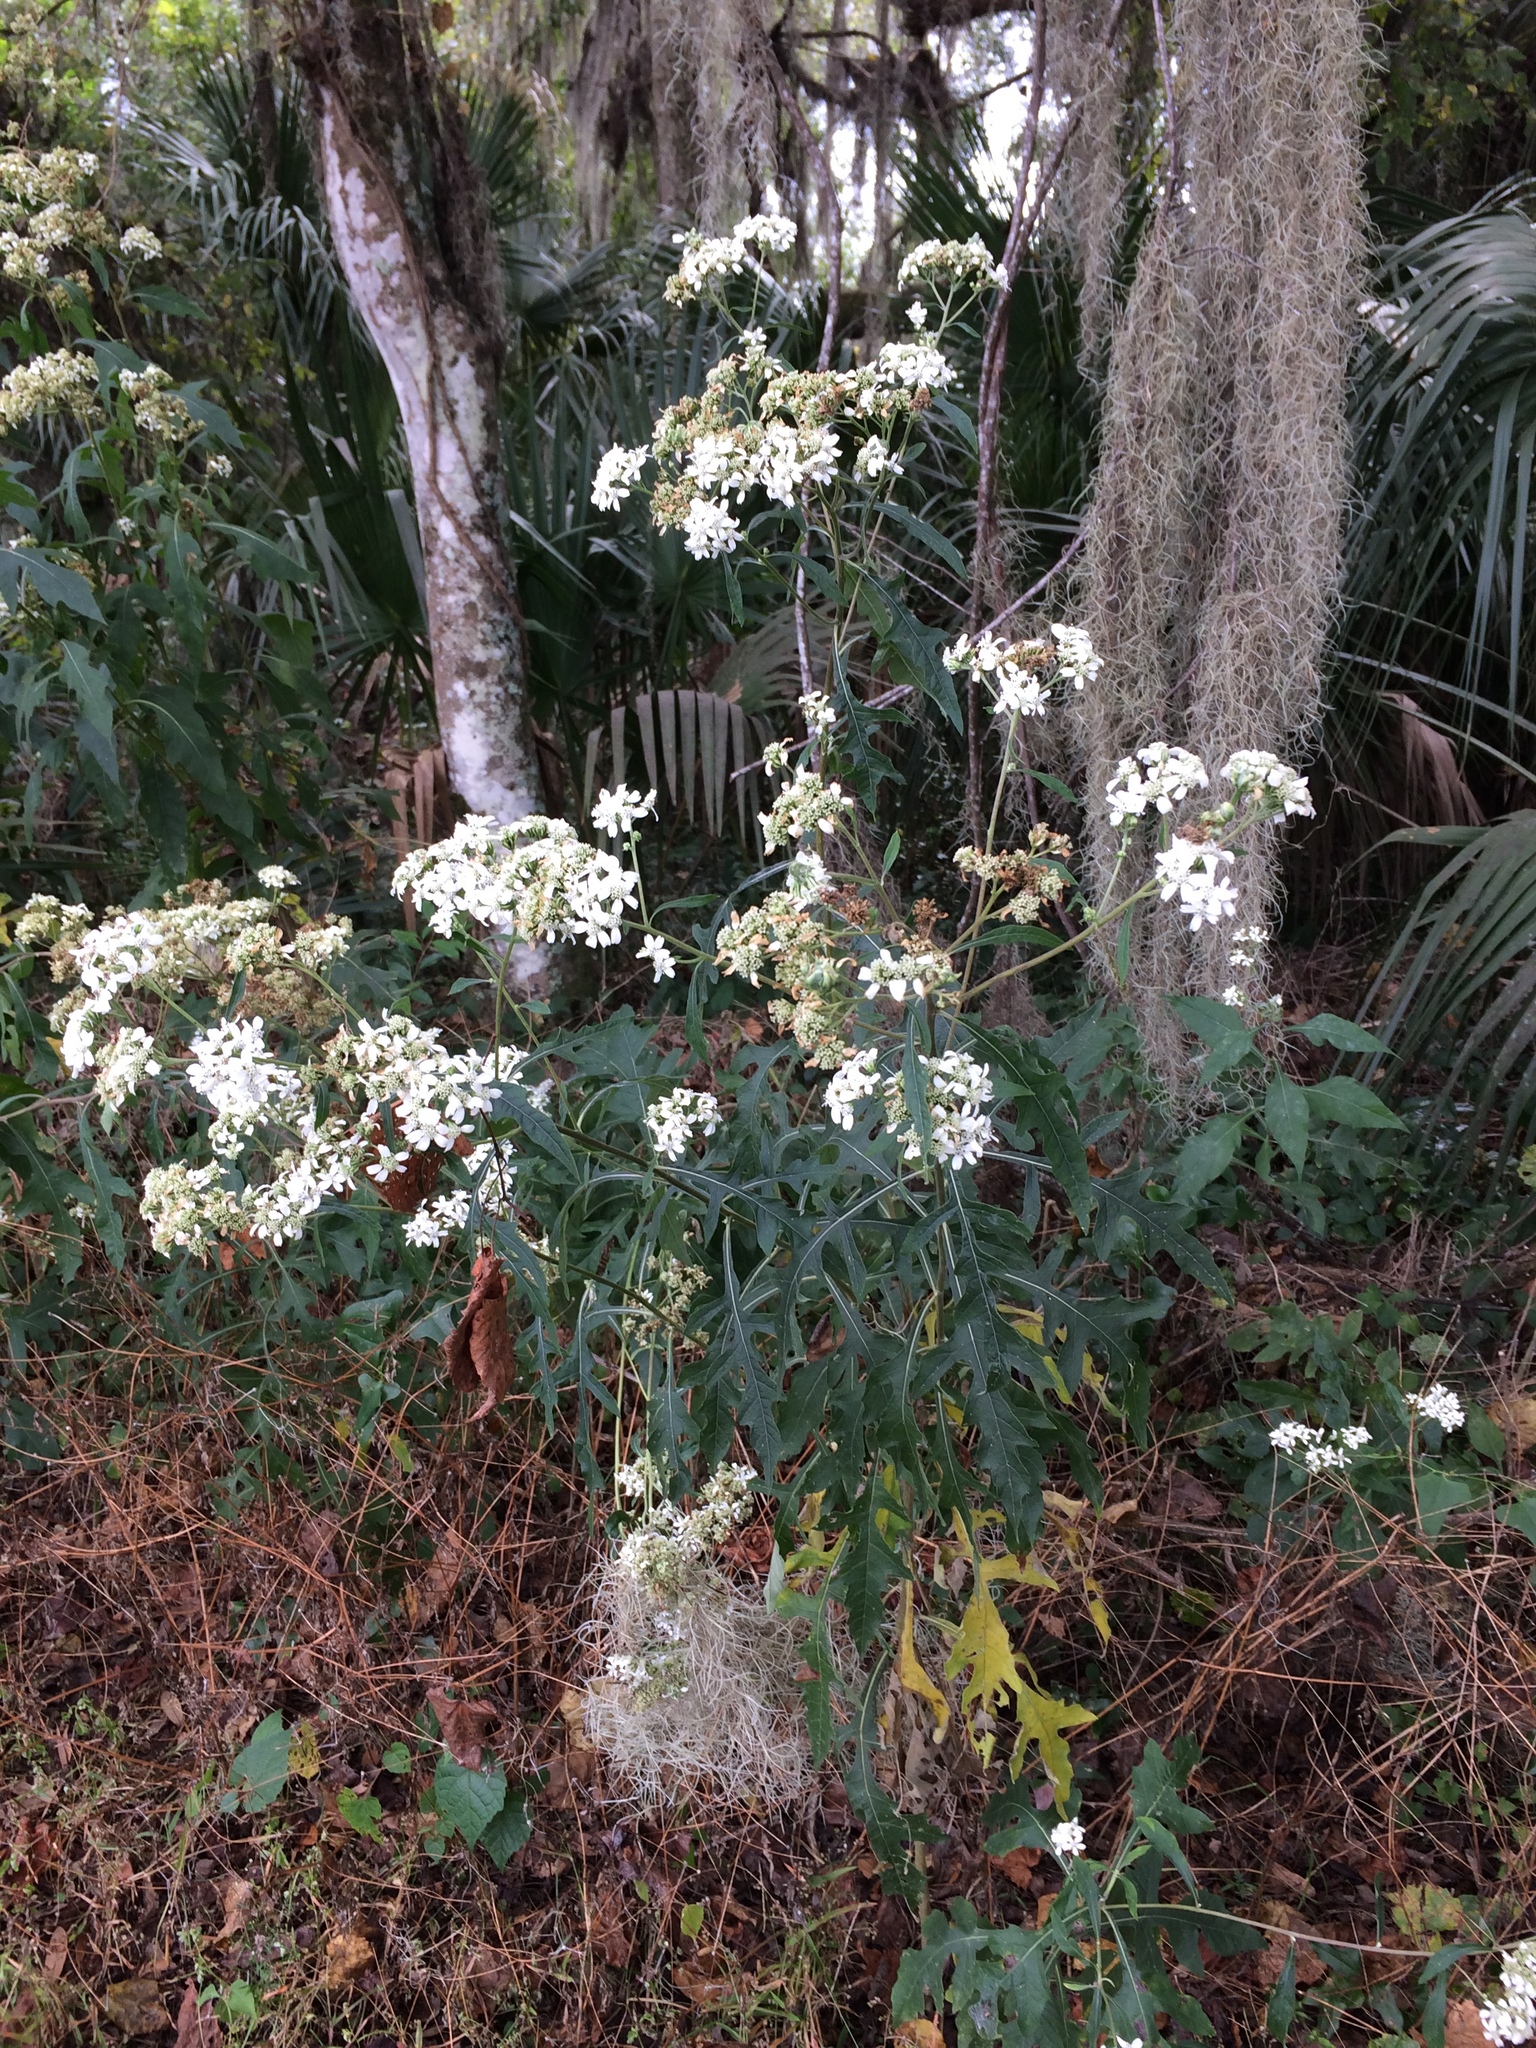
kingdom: Plantae
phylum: Tracheophyta
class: Magnoliopsida
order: Asterales
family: Asteraceae
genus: Verbesina
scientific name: Verbesina virginica
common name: Frostweed
